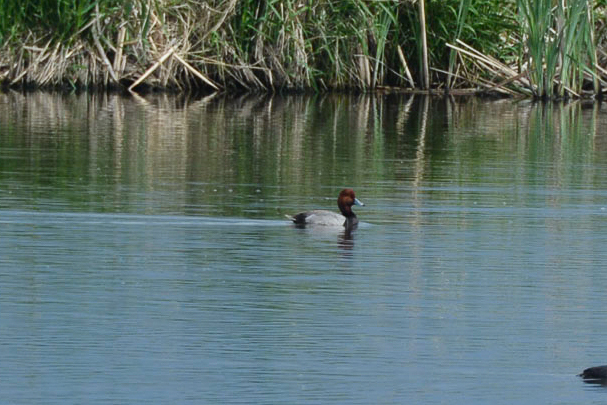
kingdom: Animalia
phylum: Chordata
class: Aves
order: Anseriformes
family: Anatidae
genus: Aythya
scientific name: Aythya americana
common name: Redhead
